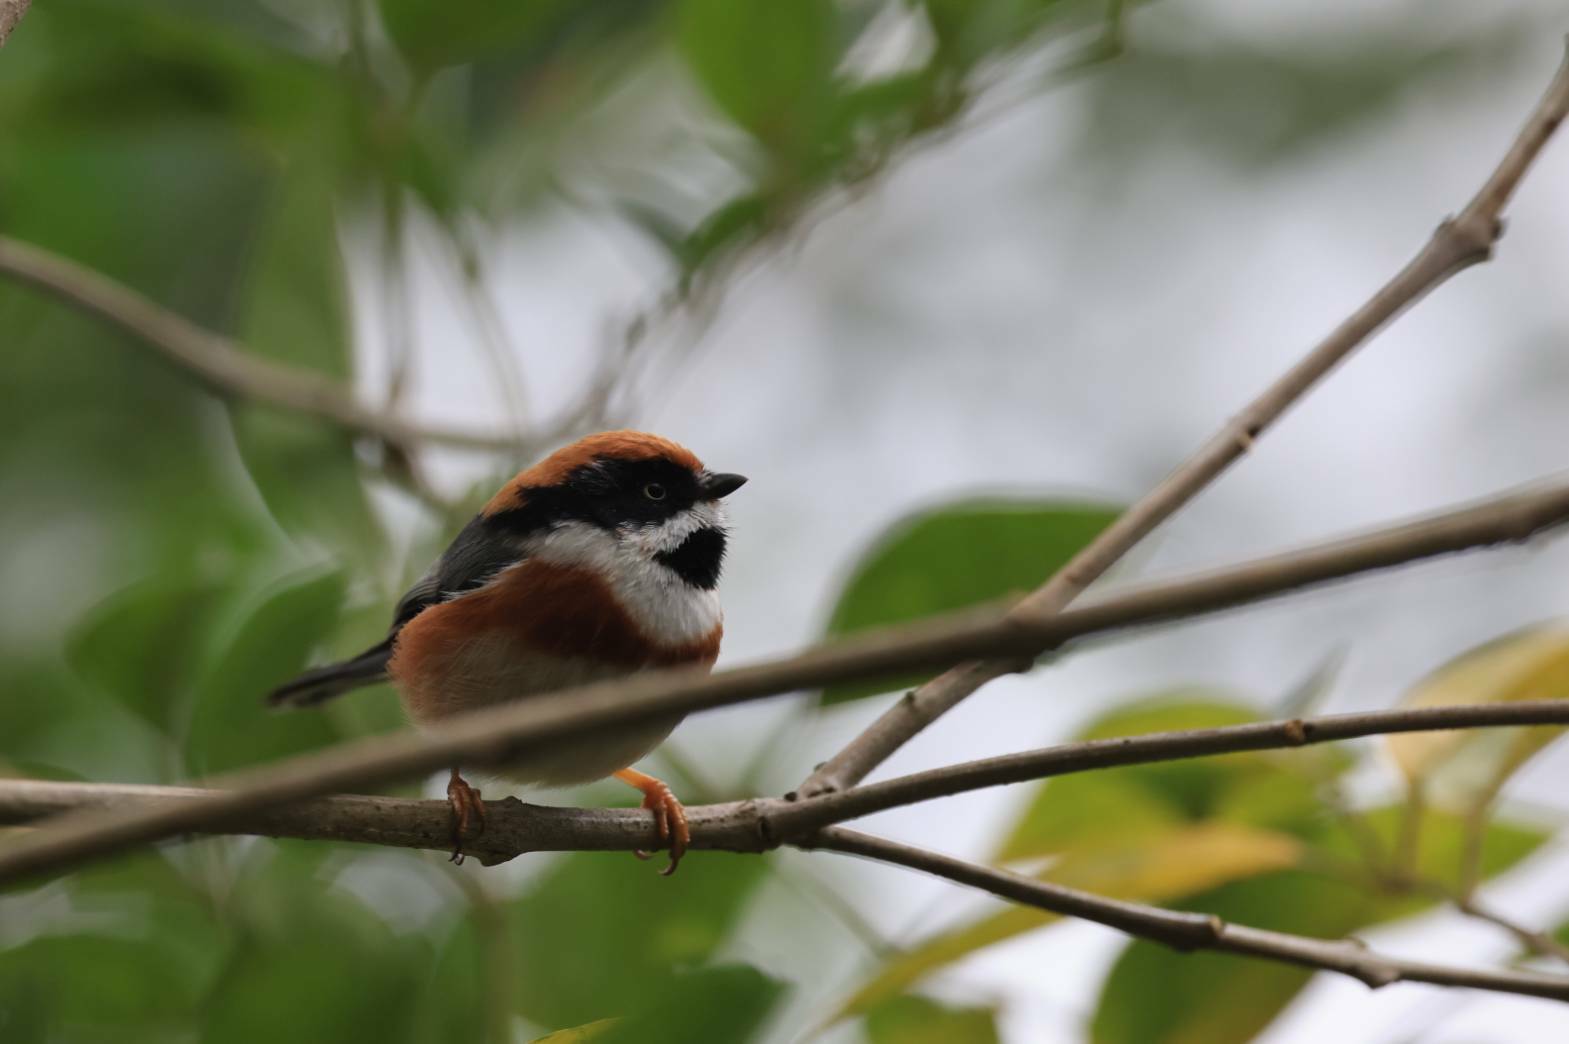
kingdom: Animalia
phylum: Chordata
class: Aves
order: Passeriformes
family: Aegithalidae
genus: Aegithalos
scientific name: Aegithalos concinnus
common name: Black-throated bushtit
